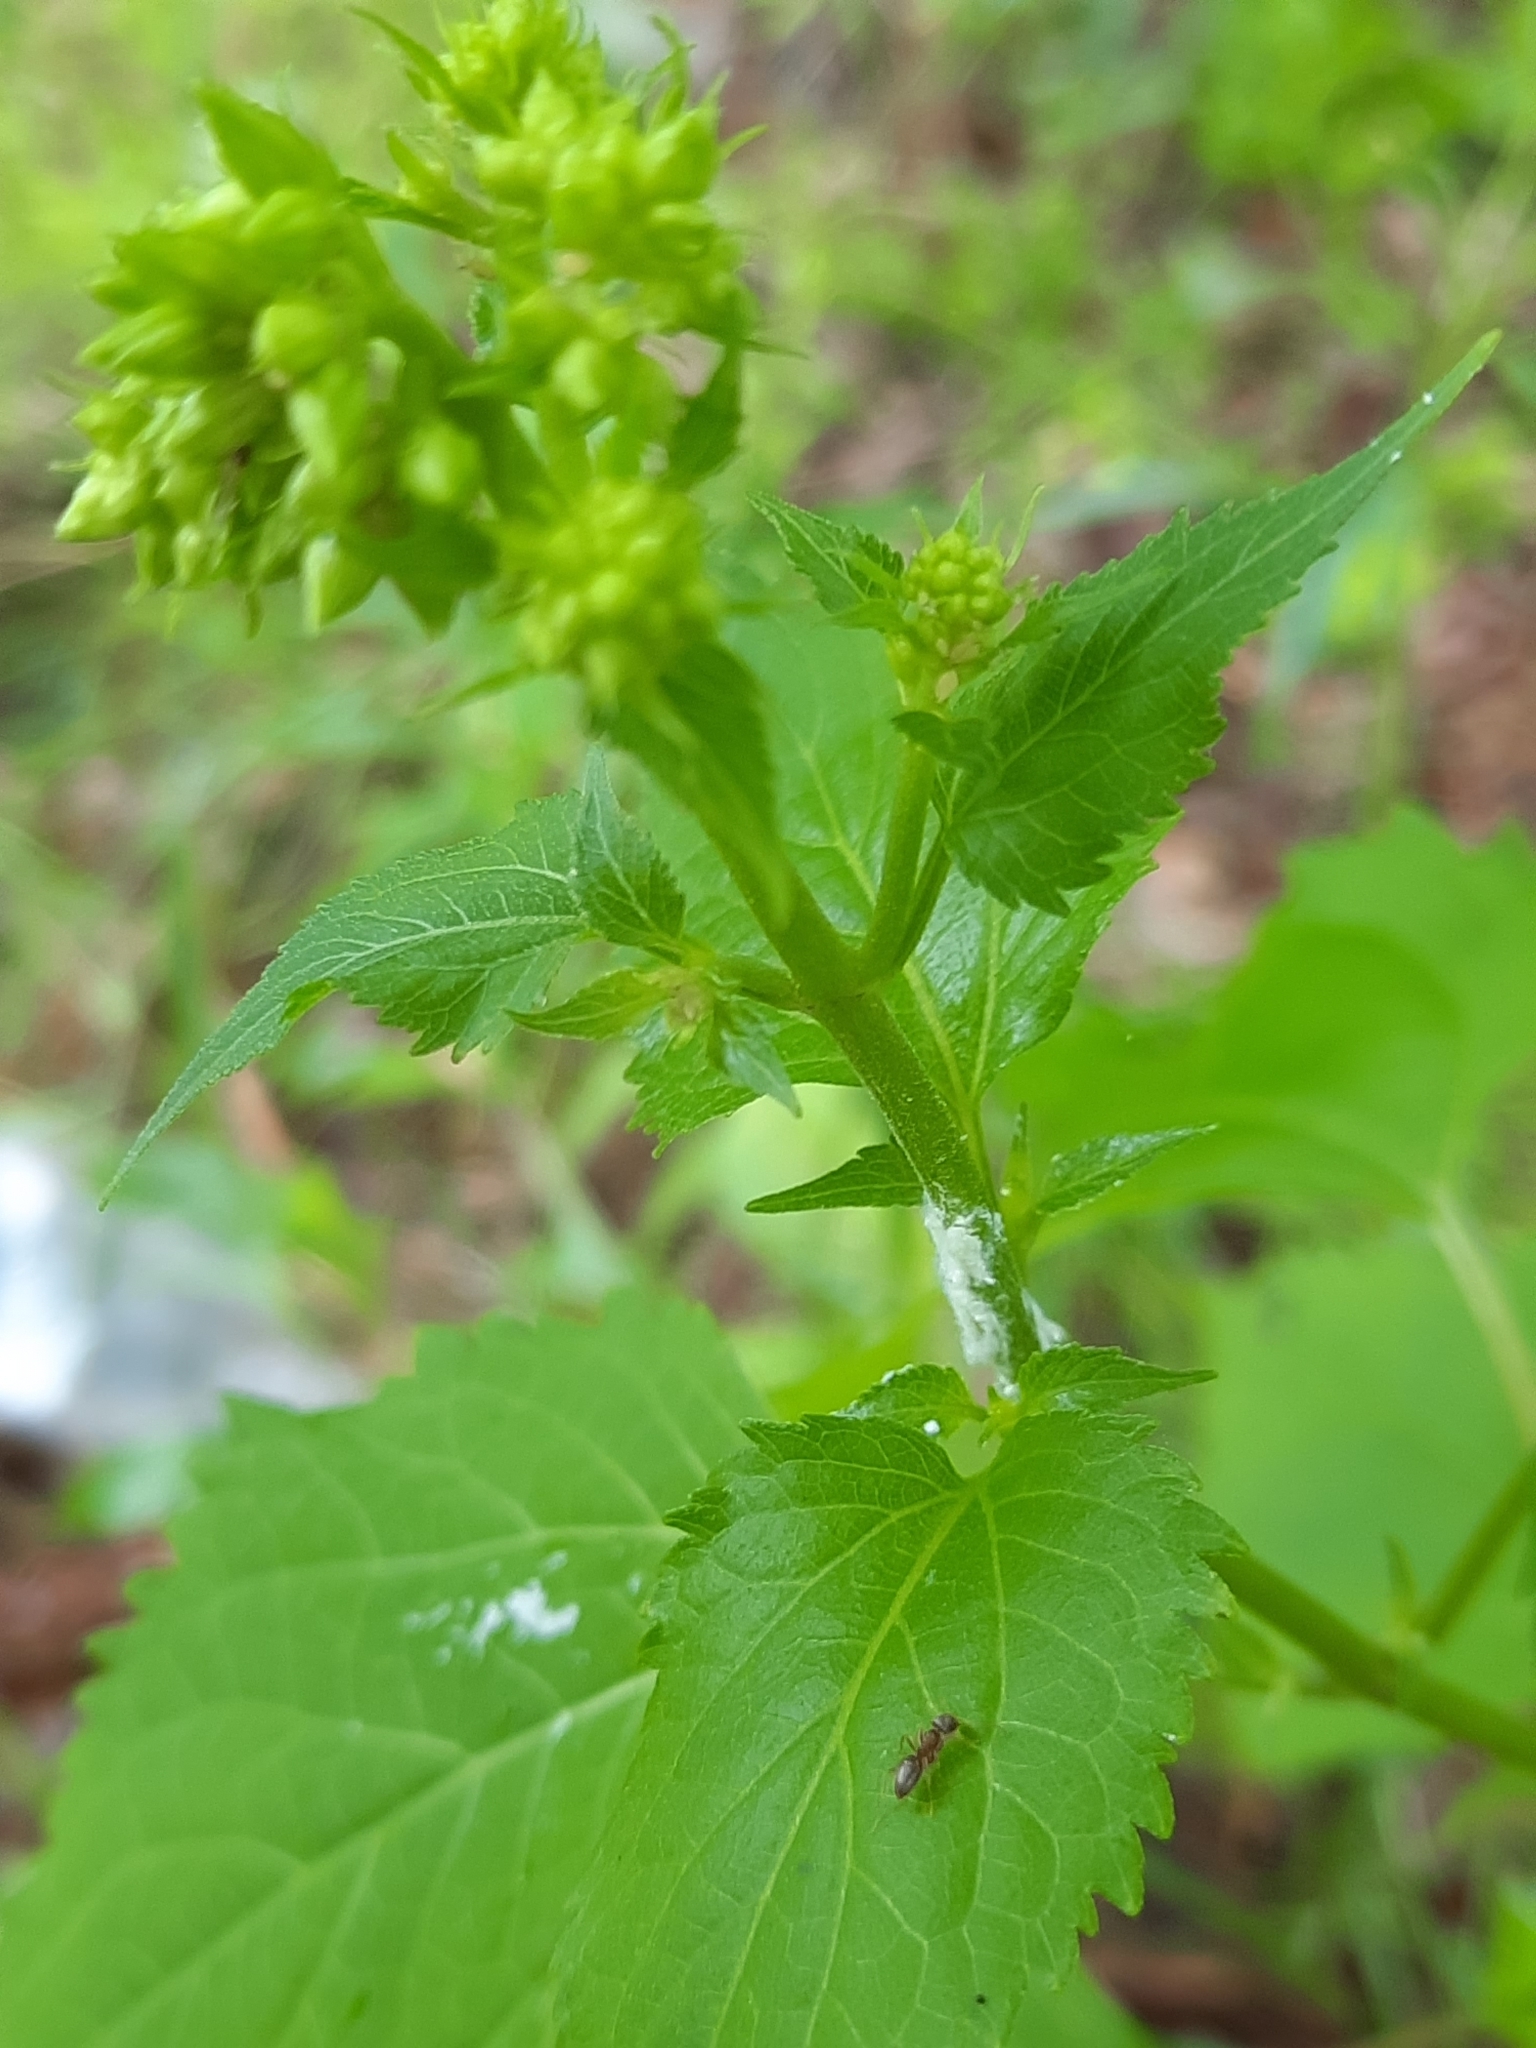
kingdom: Plantae
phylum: Tracheophyta
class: Magnoliopsida
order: Asterales
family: Asteraceae
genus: Ageratina
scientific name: Ageratina altissima
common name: White snakeroot
